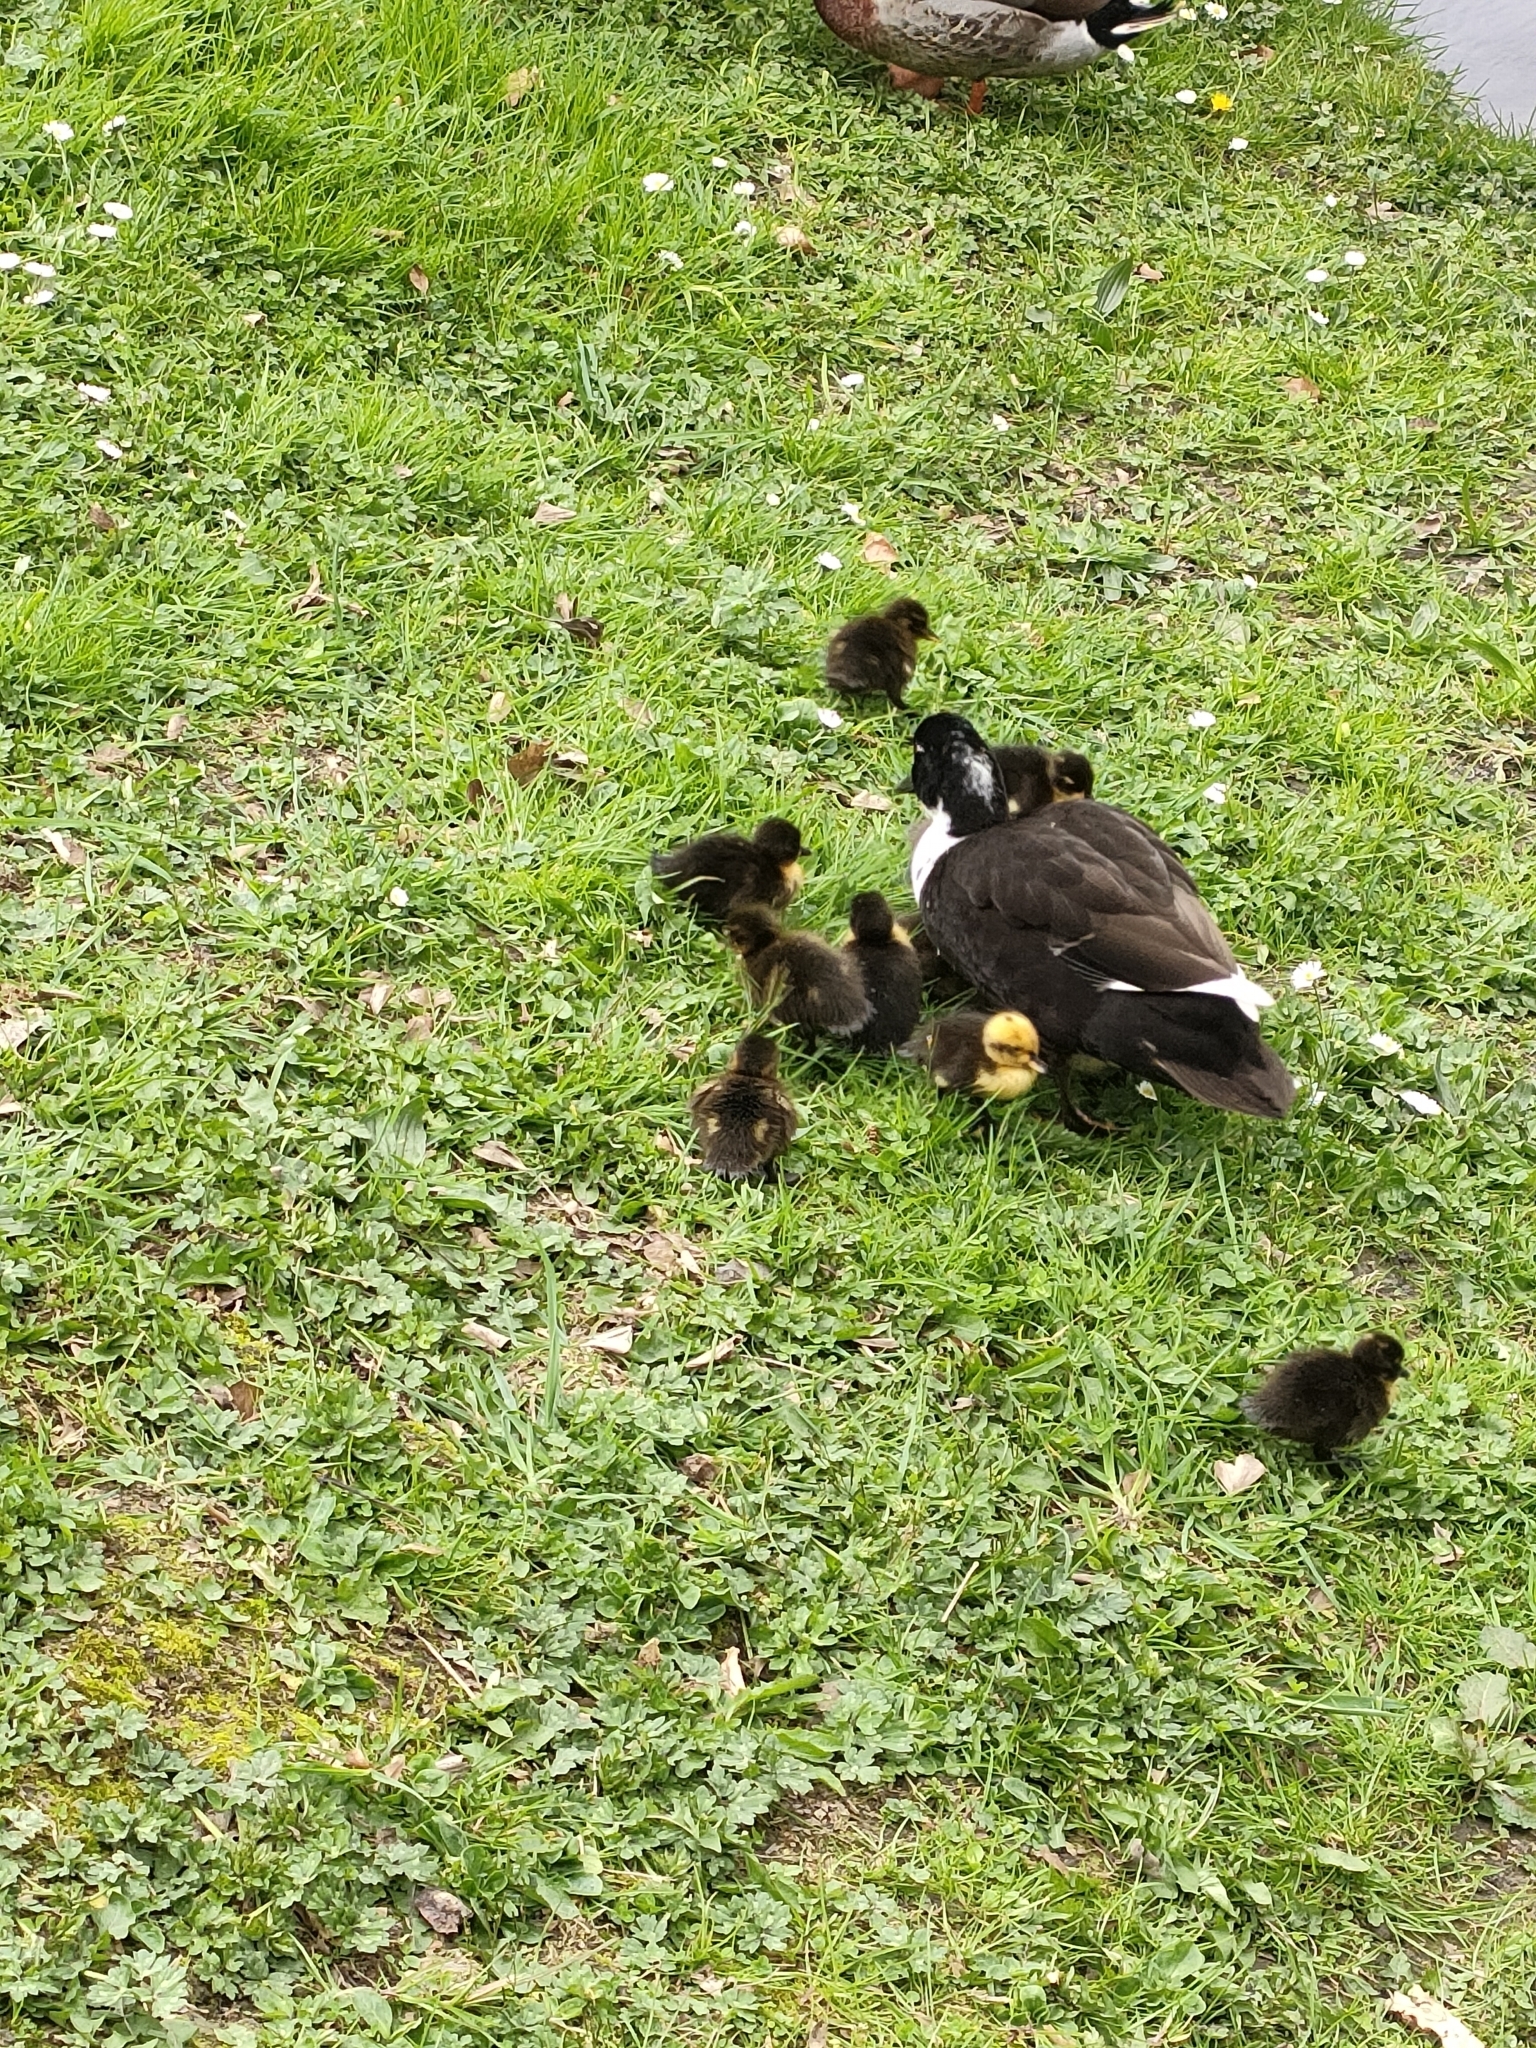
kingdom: Animalia
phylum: Chordata
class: Aves
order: Anseriformes
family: Anatidae
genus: Anas
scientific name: Anas platyrhynchos
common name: Mallard
